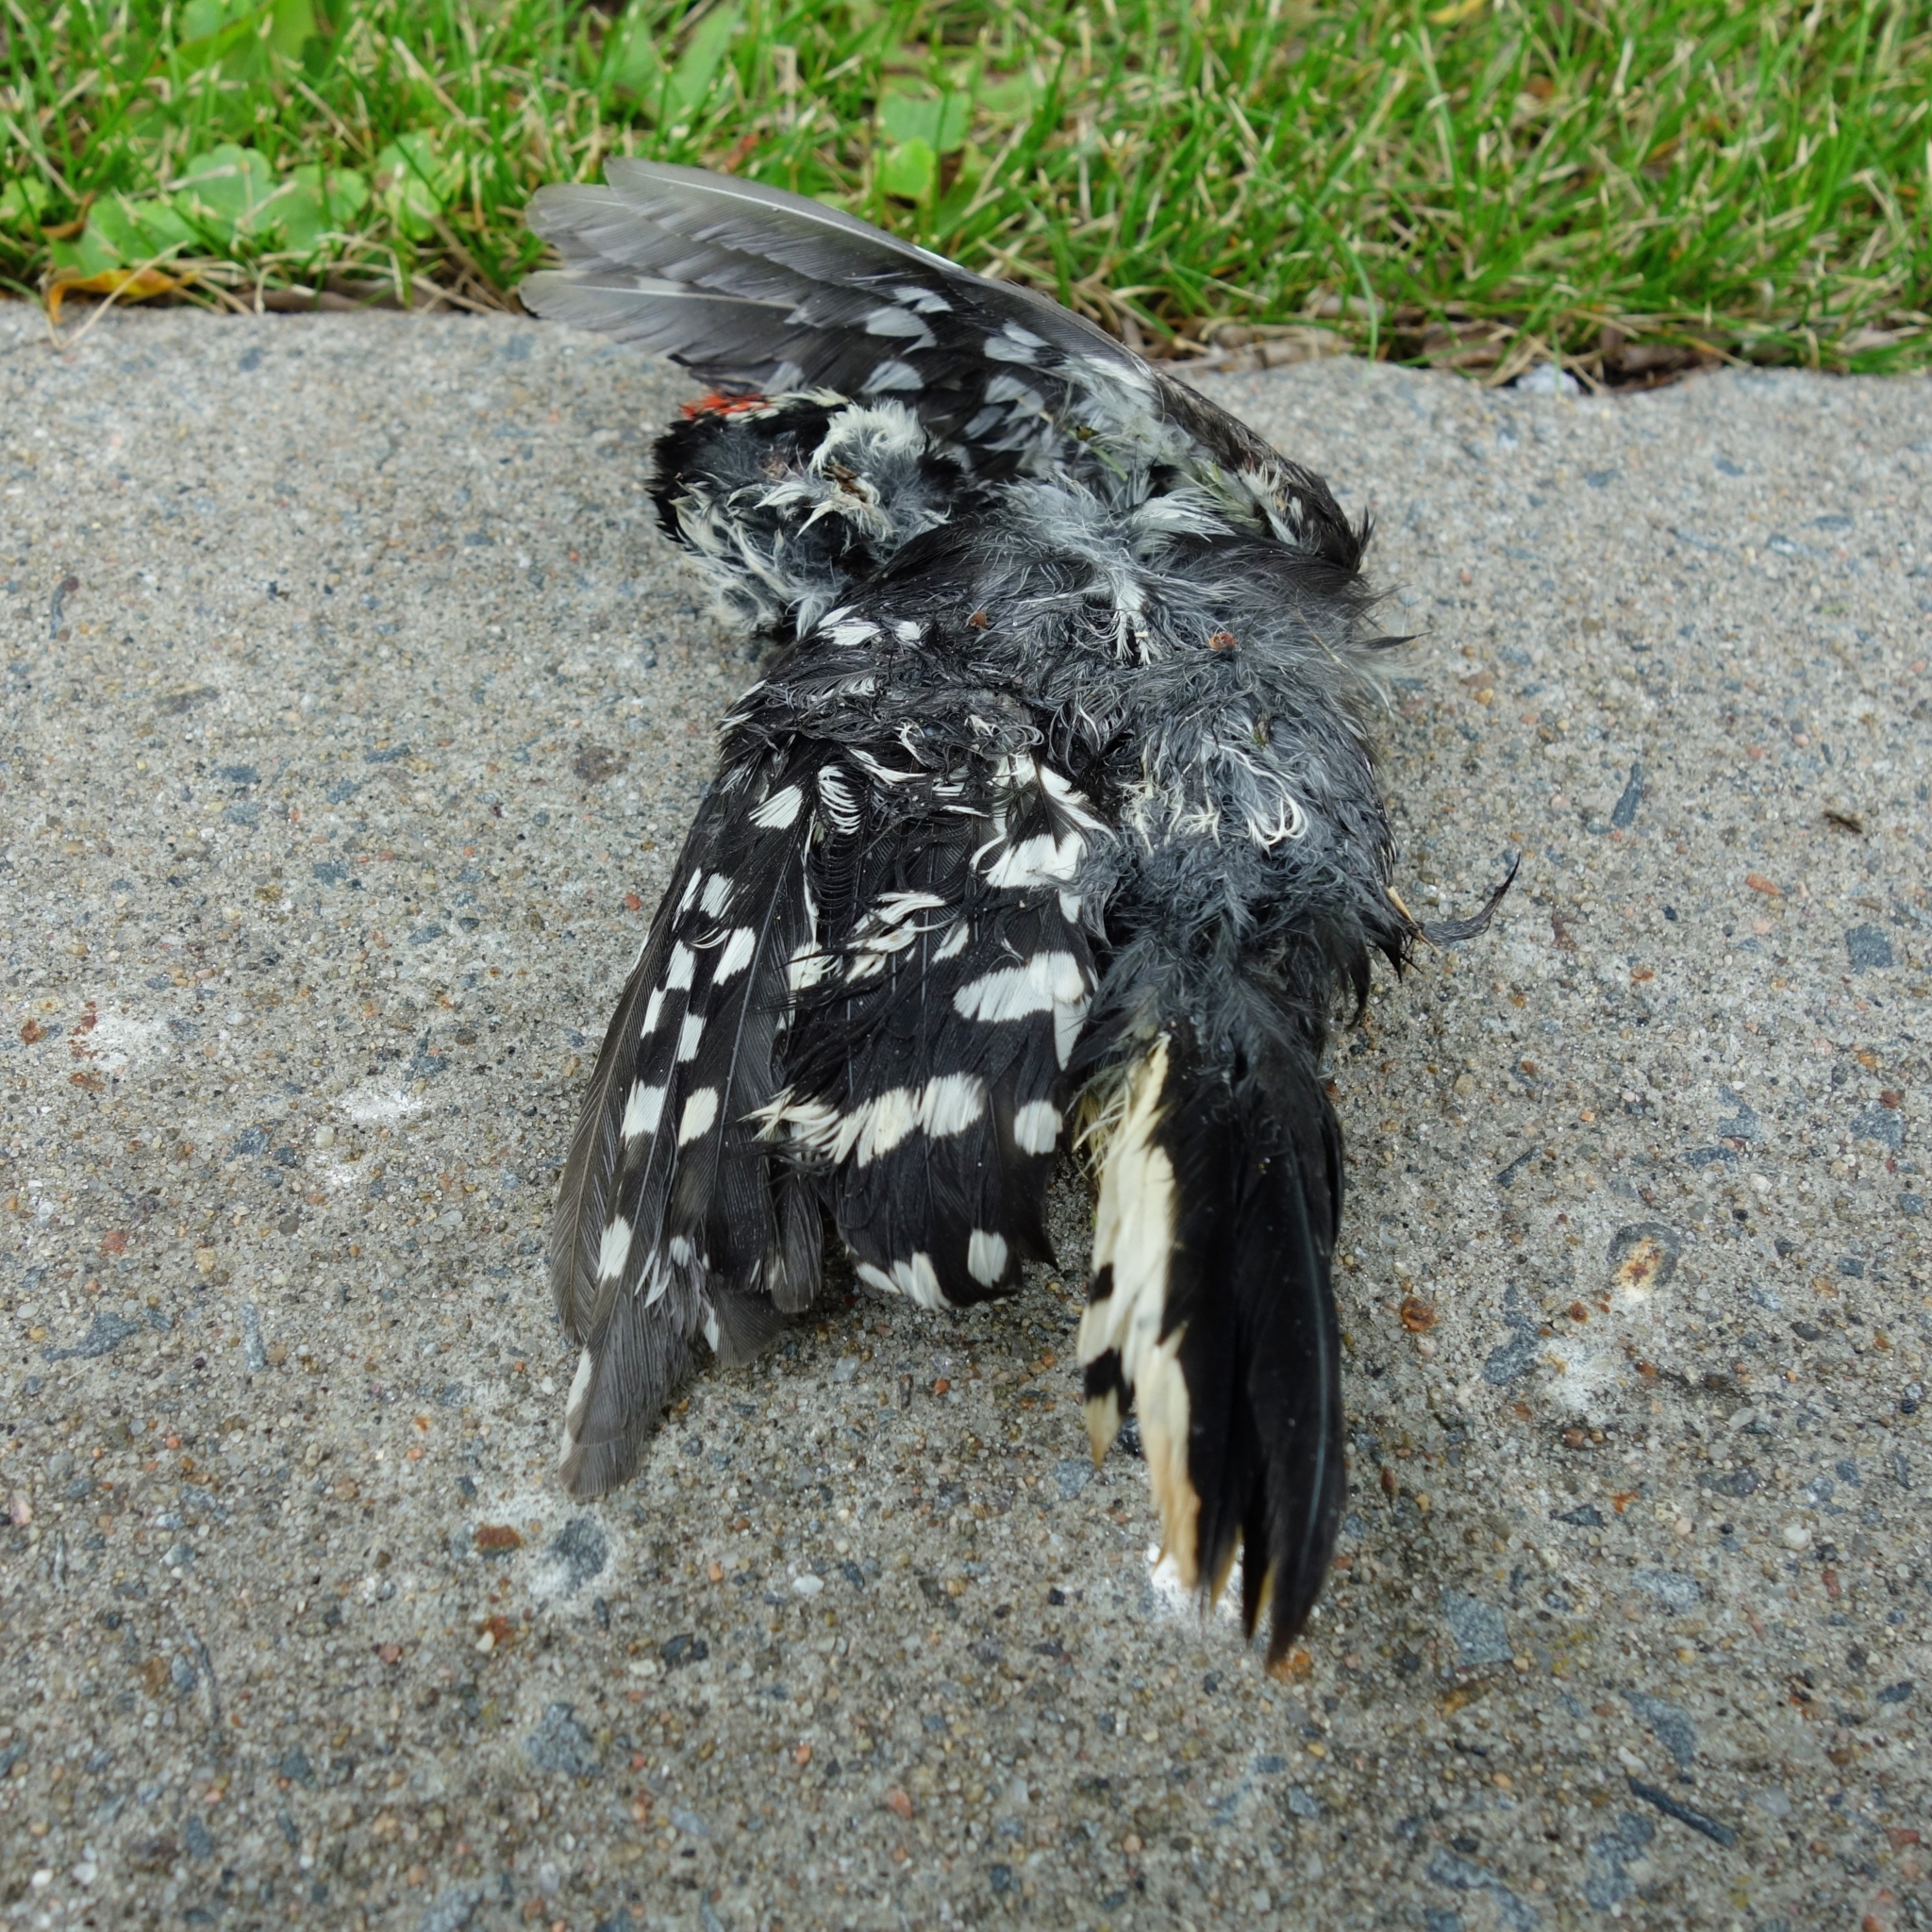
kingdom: Animalia
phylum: Chordata
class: Aves
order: Piciformes
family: Picidae
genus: Dryobates
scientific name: Dryobates pubescens
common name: Downy woodpecker
